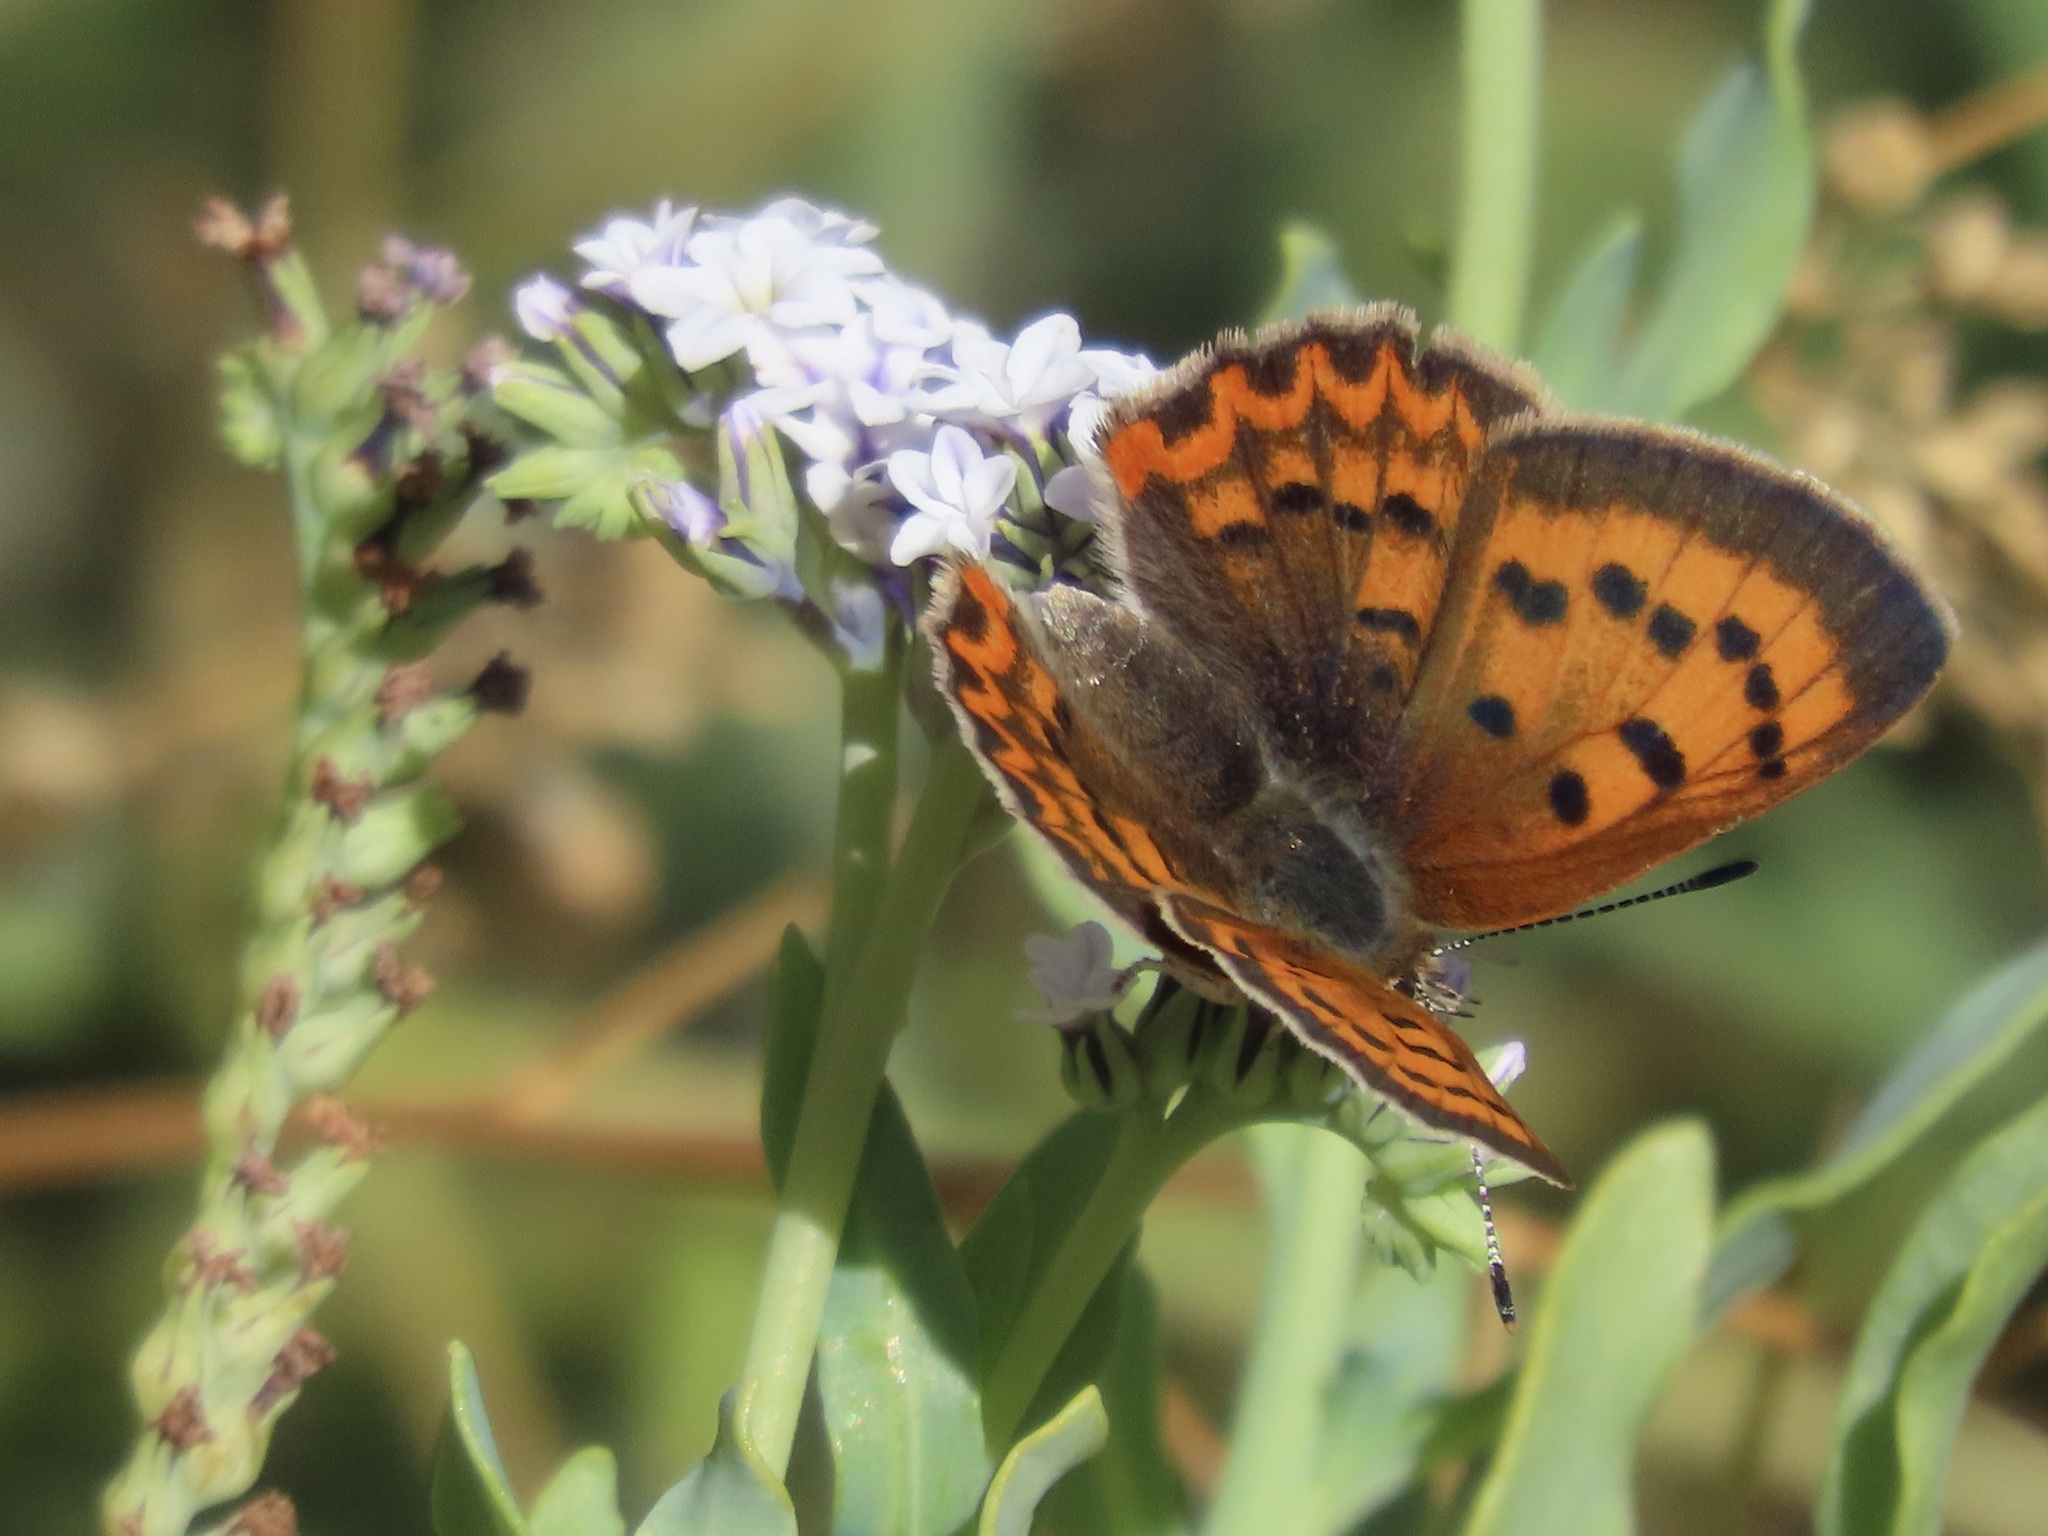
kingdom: Animalia
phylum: Arthropoda
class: Insecta
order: Lepidoptera
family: Lycaenidae
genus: Tharsalea
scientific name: Tharsalea helloides
